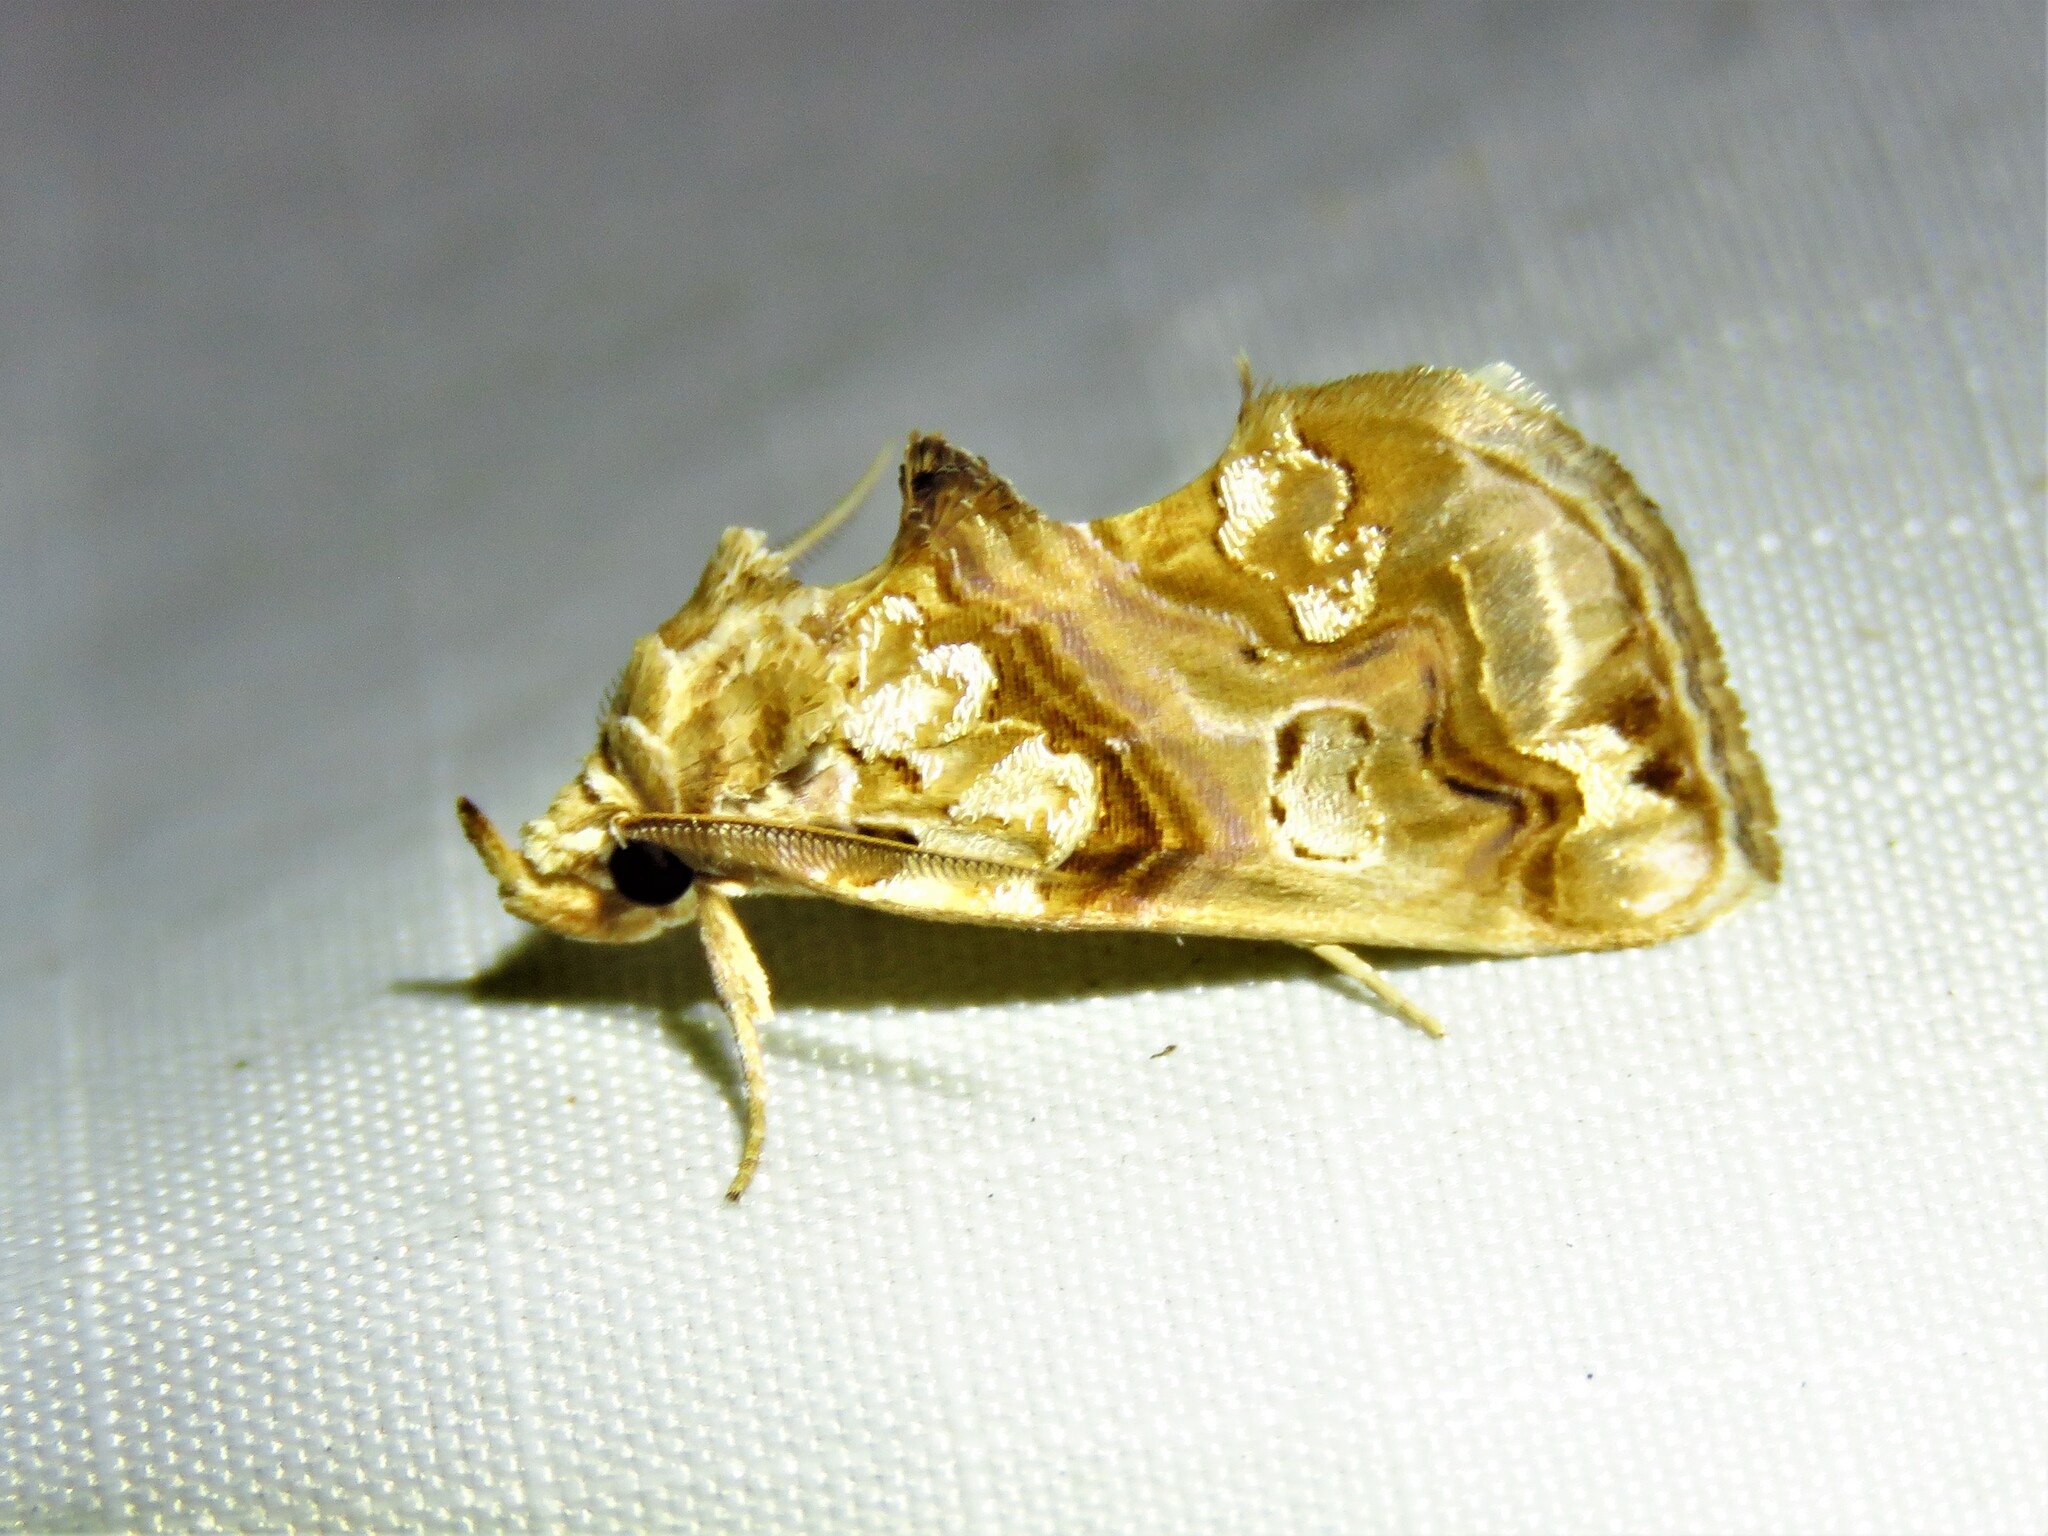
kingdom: Animalia
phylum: Arthropoda
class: Insecta
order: Lepidoptera
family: Erebidae
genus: Plusiodonta
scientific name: Plusiodonta compressipalpis
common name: Moonseed moth
